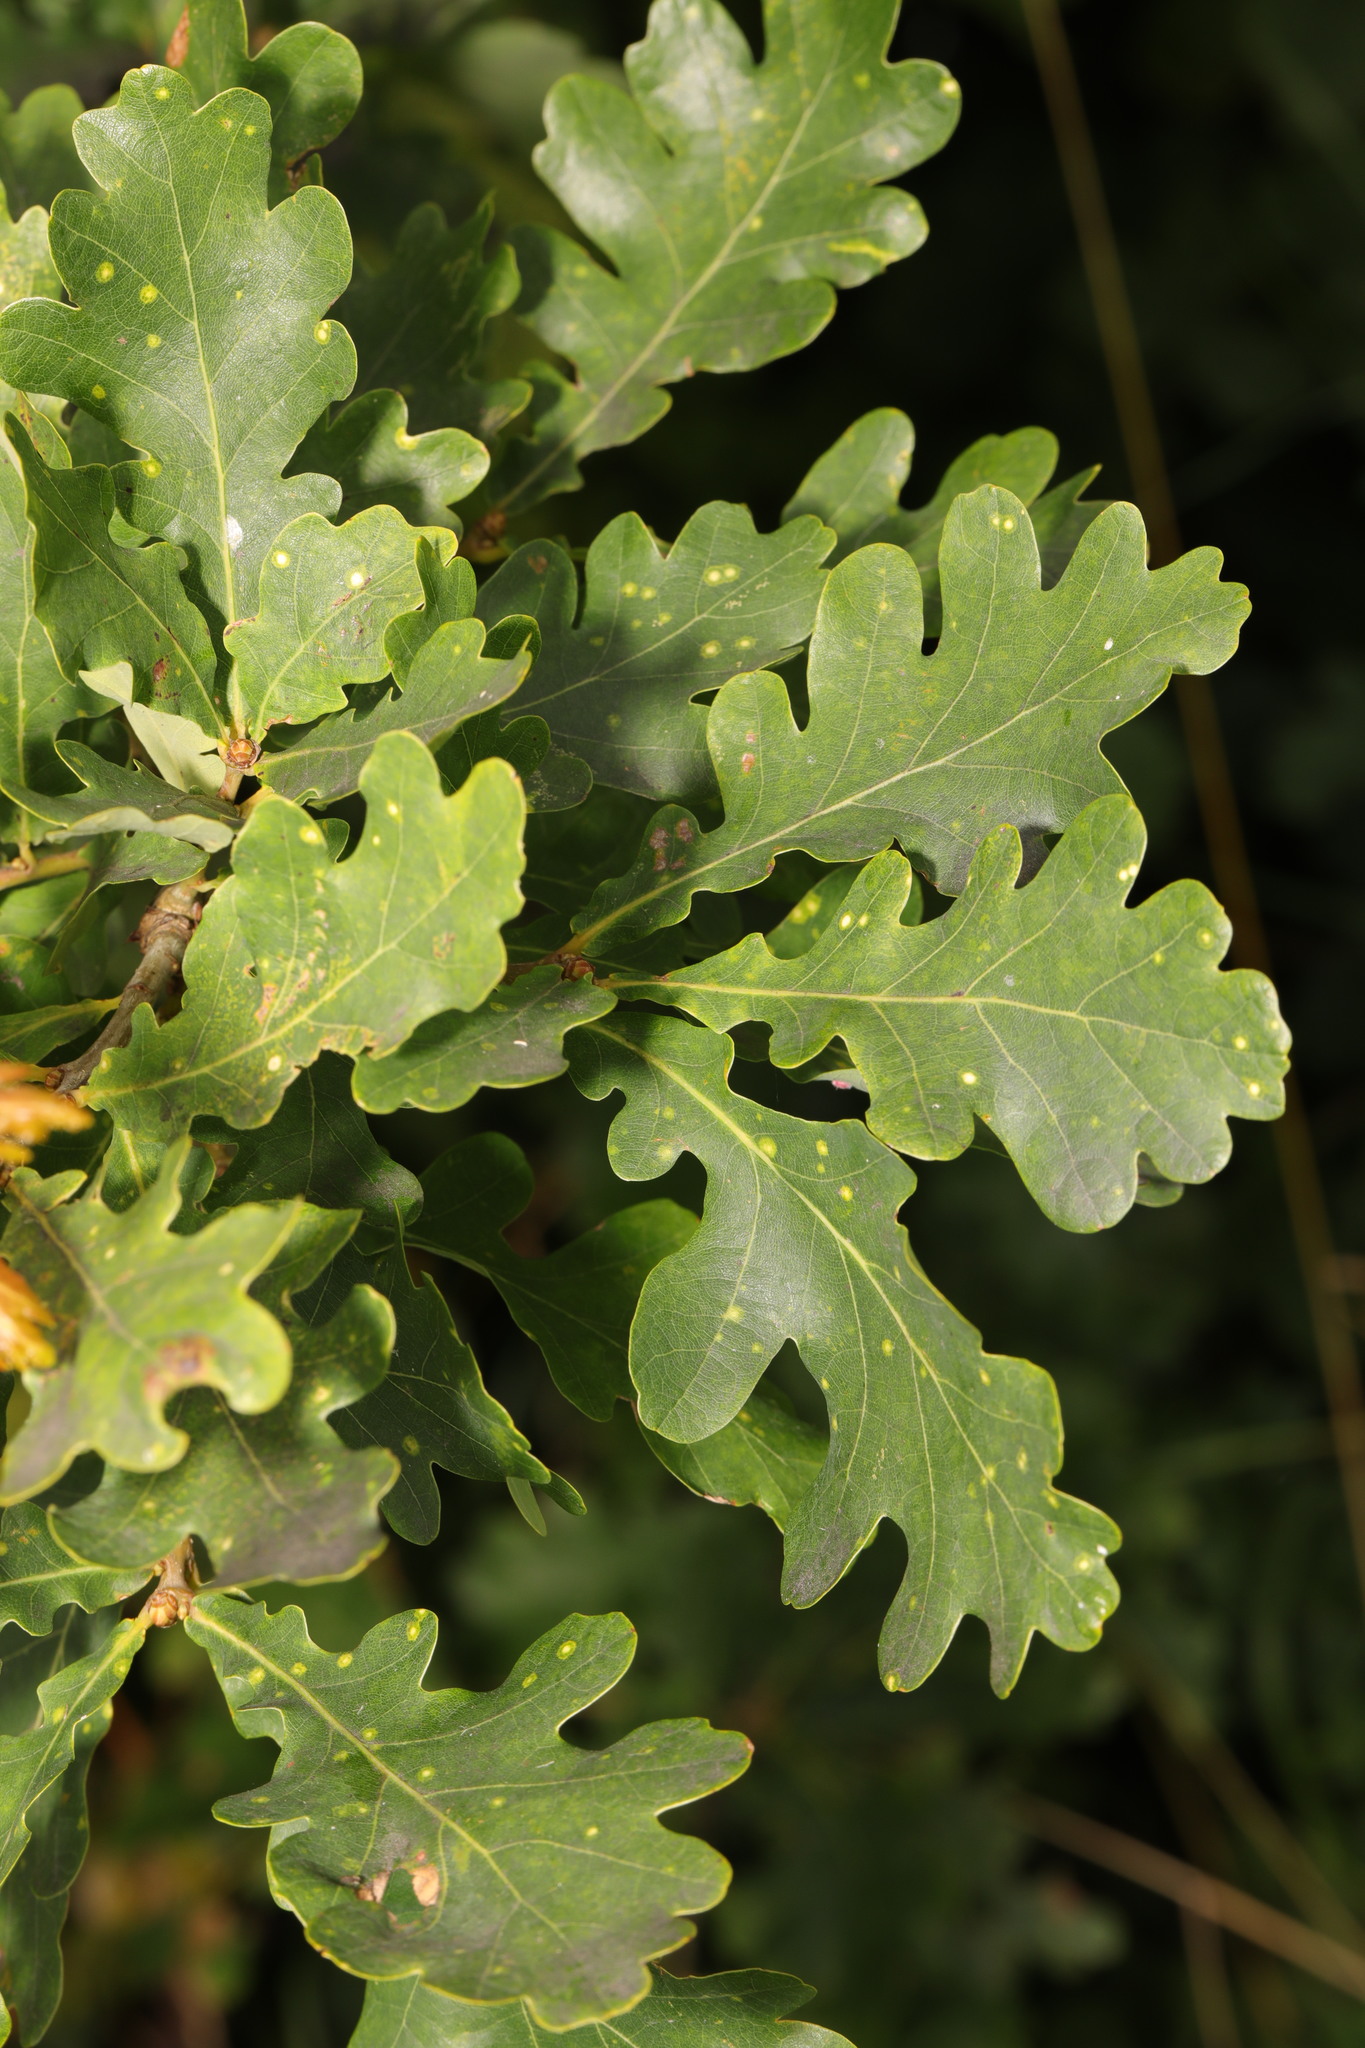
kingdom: Plantae
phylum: Tracheophyta
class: Magnoliopsida
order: Fagales
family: Fagaceae
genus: Quercus
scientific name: Quercus robur
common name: Pedunculate oak
